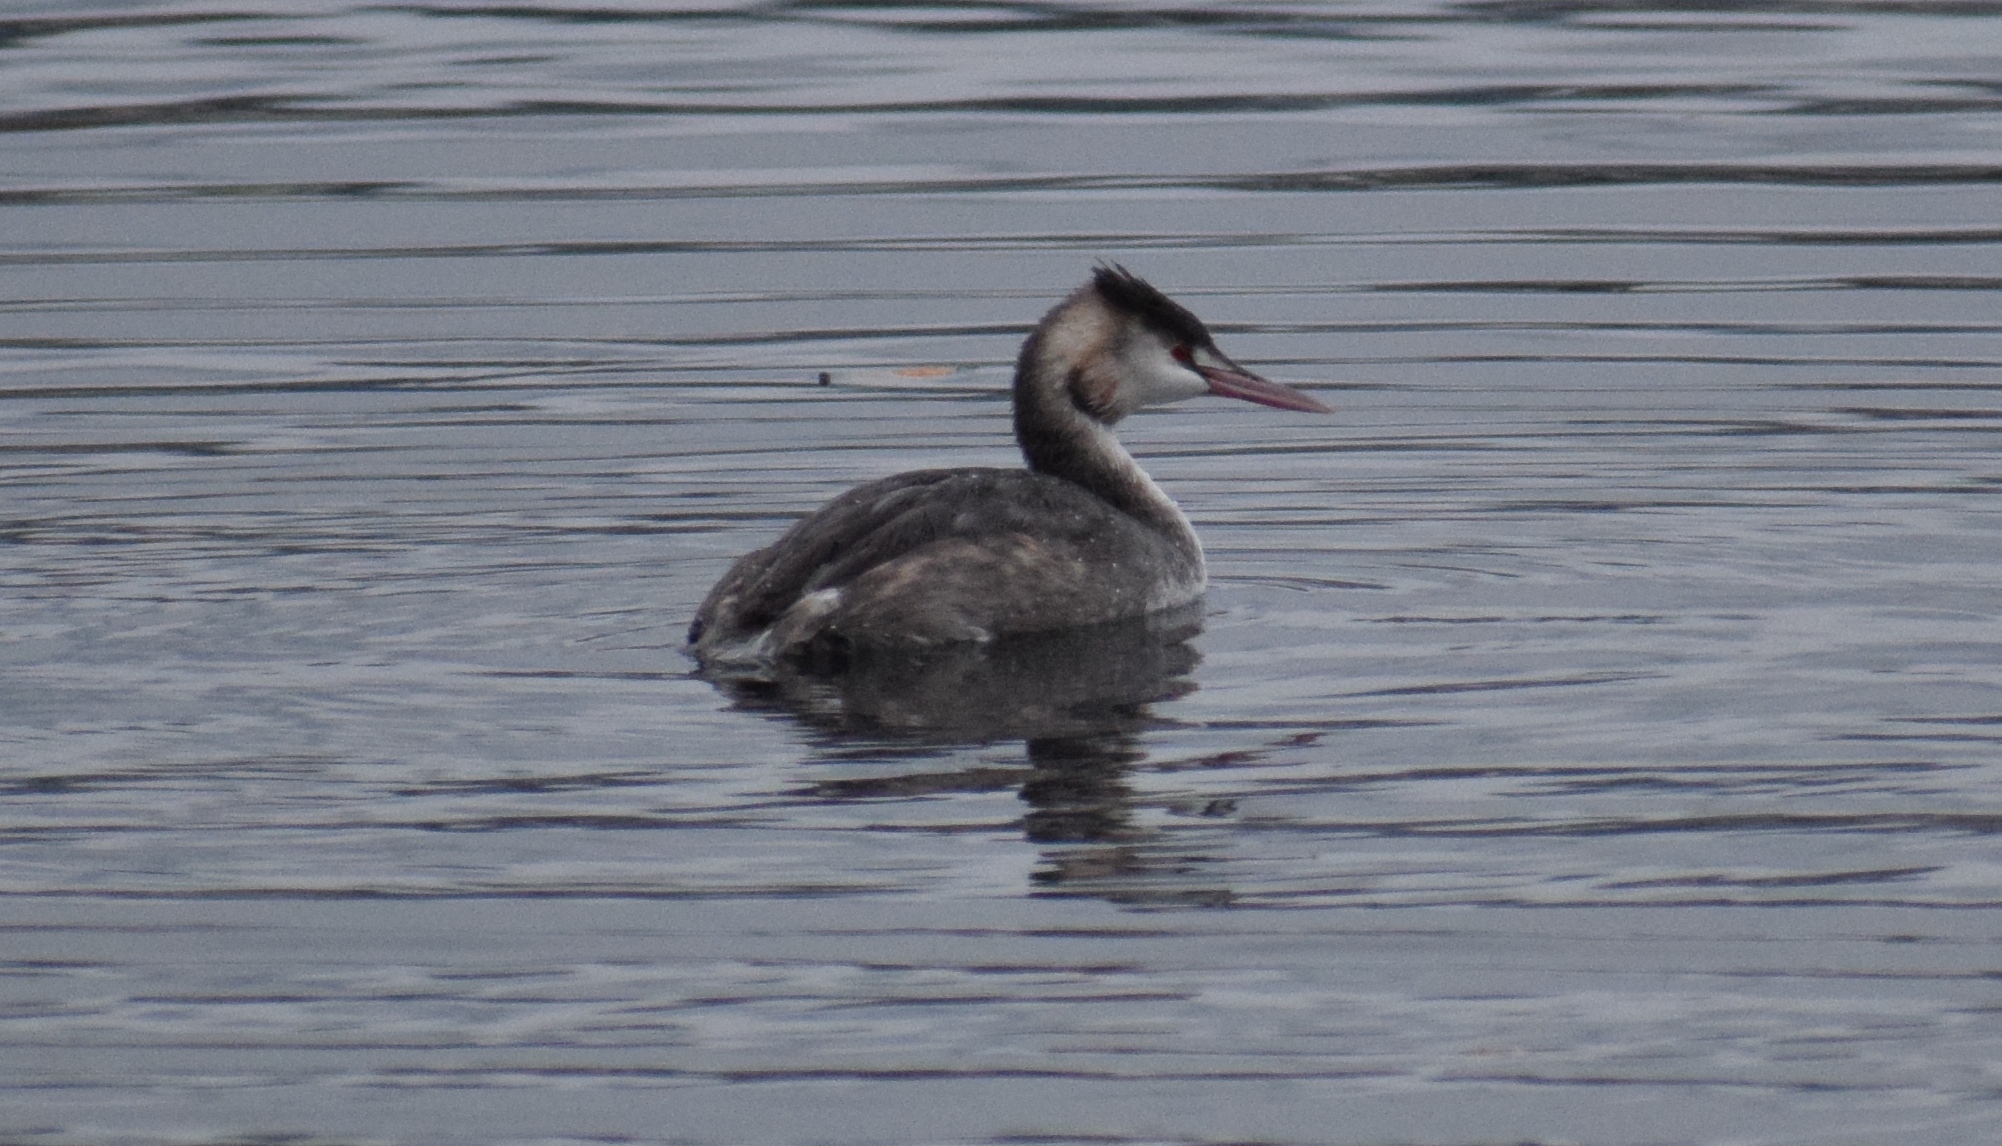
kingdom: Animalia
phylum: Chordata
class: Aves
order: Podicipediformes
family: Podicipedidae
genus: Podiceps
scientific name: Podiceps cristatus
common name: Great crested grebe
